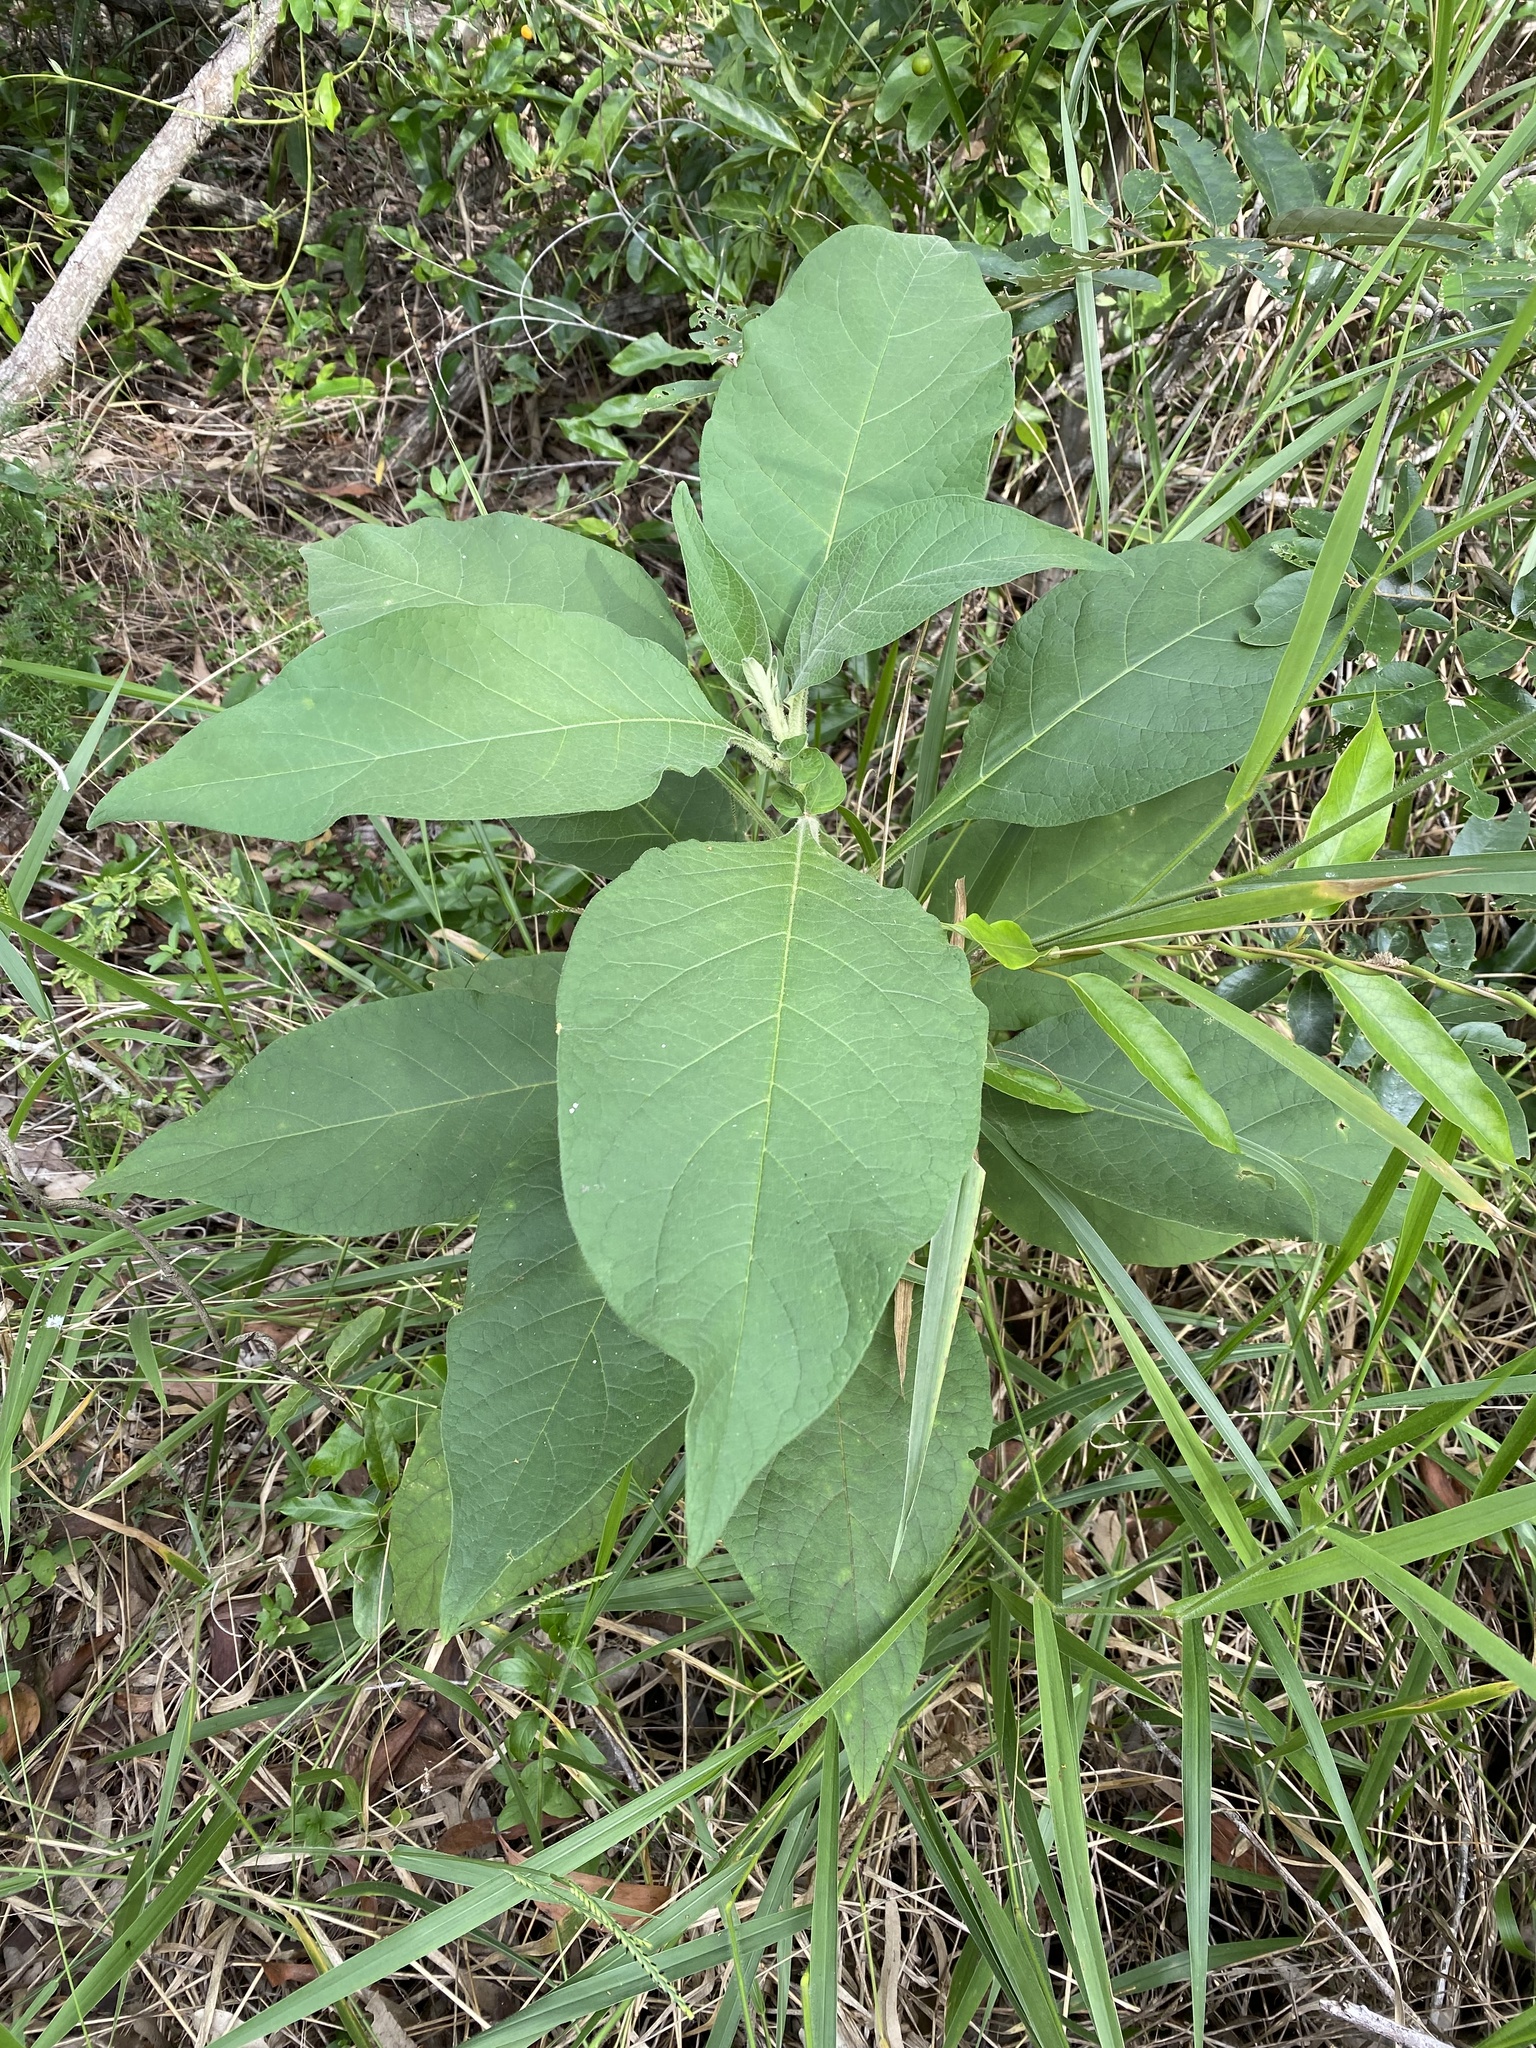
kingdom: Plantae
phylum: Tracheophyta
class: Magnoliopsida
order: Solanales
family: Solanaceae
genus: Solanum
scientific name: Solanum mauritianum
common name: Earleaf nightshade
